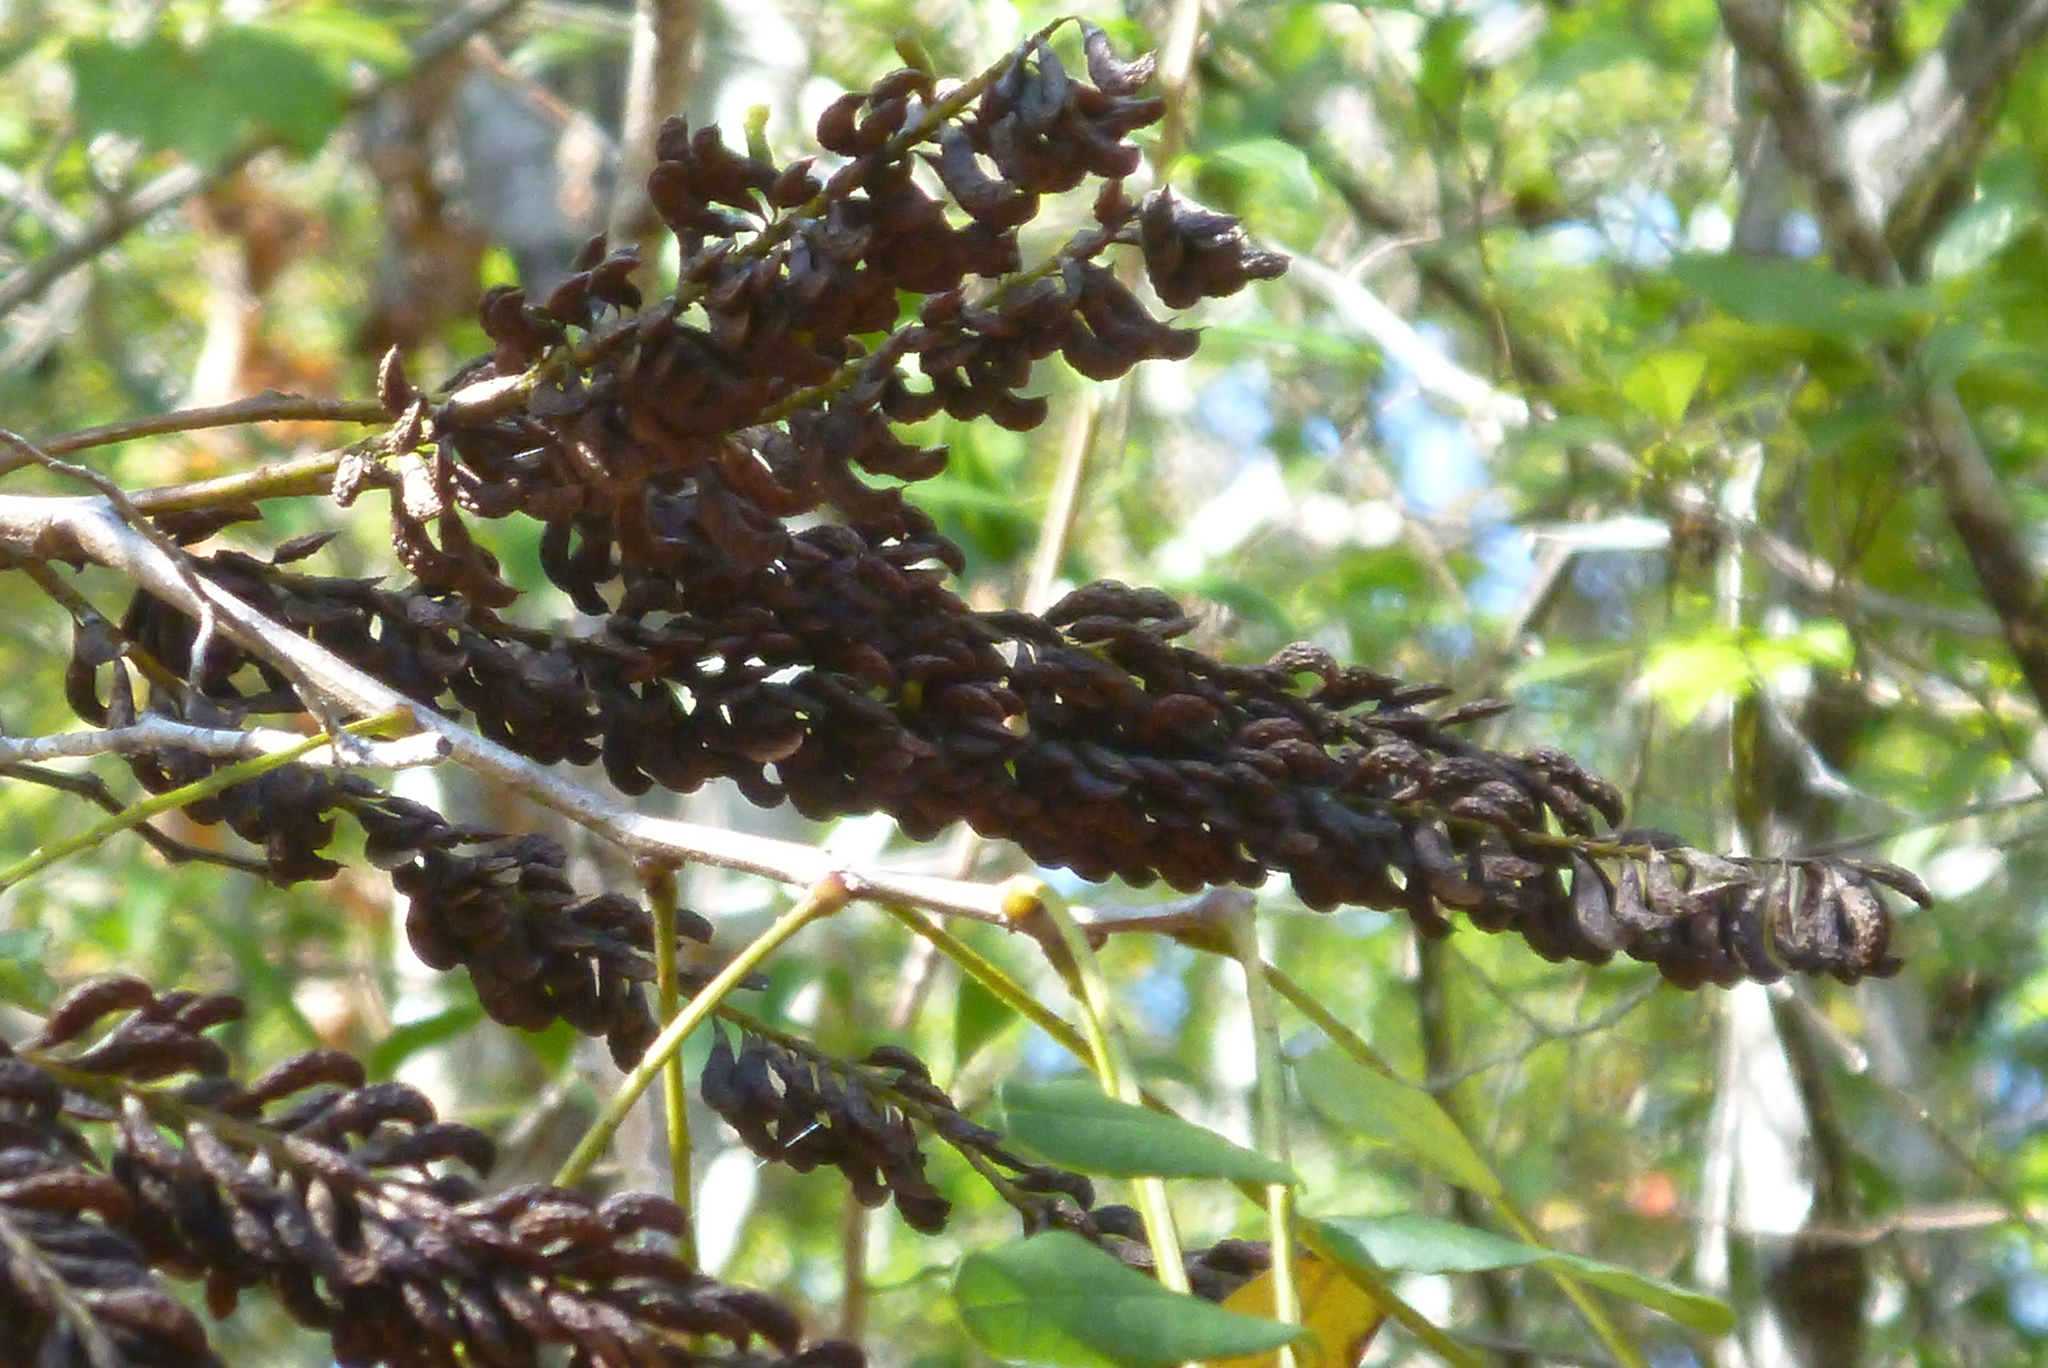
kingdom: Plantae
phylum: Tracheophyta
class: Magnoliopsida
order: Fabales
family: Fabaceae
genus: Amorpha
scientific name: Amorpha fruticosa
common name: False indigo
